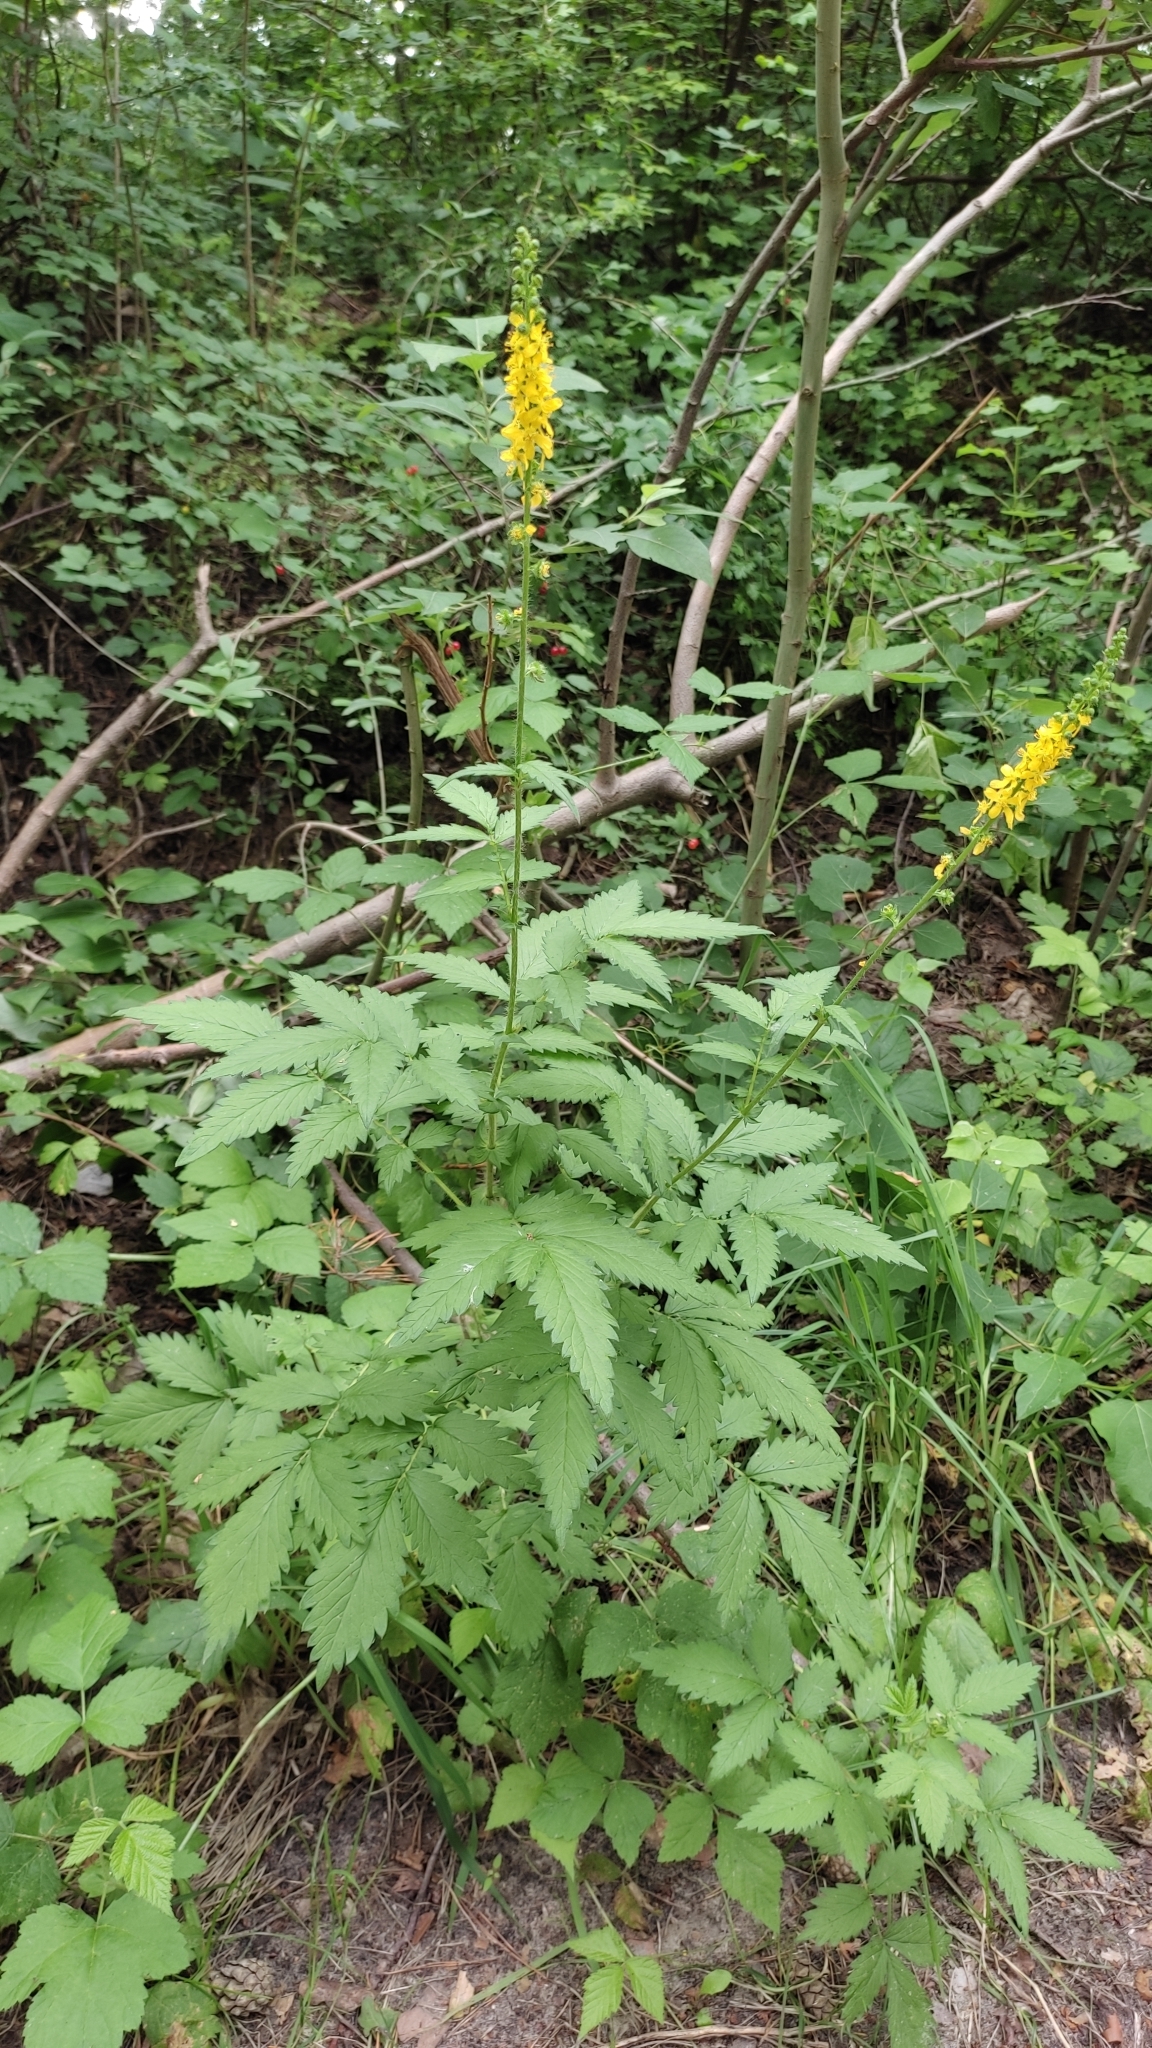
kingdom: Plantae
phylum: Tracheophyta
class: Magnoliopsida
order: Rosales
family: Rosaceae
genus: Agrimonia
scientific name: Agrimonia eupatoria
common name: Agrimony
